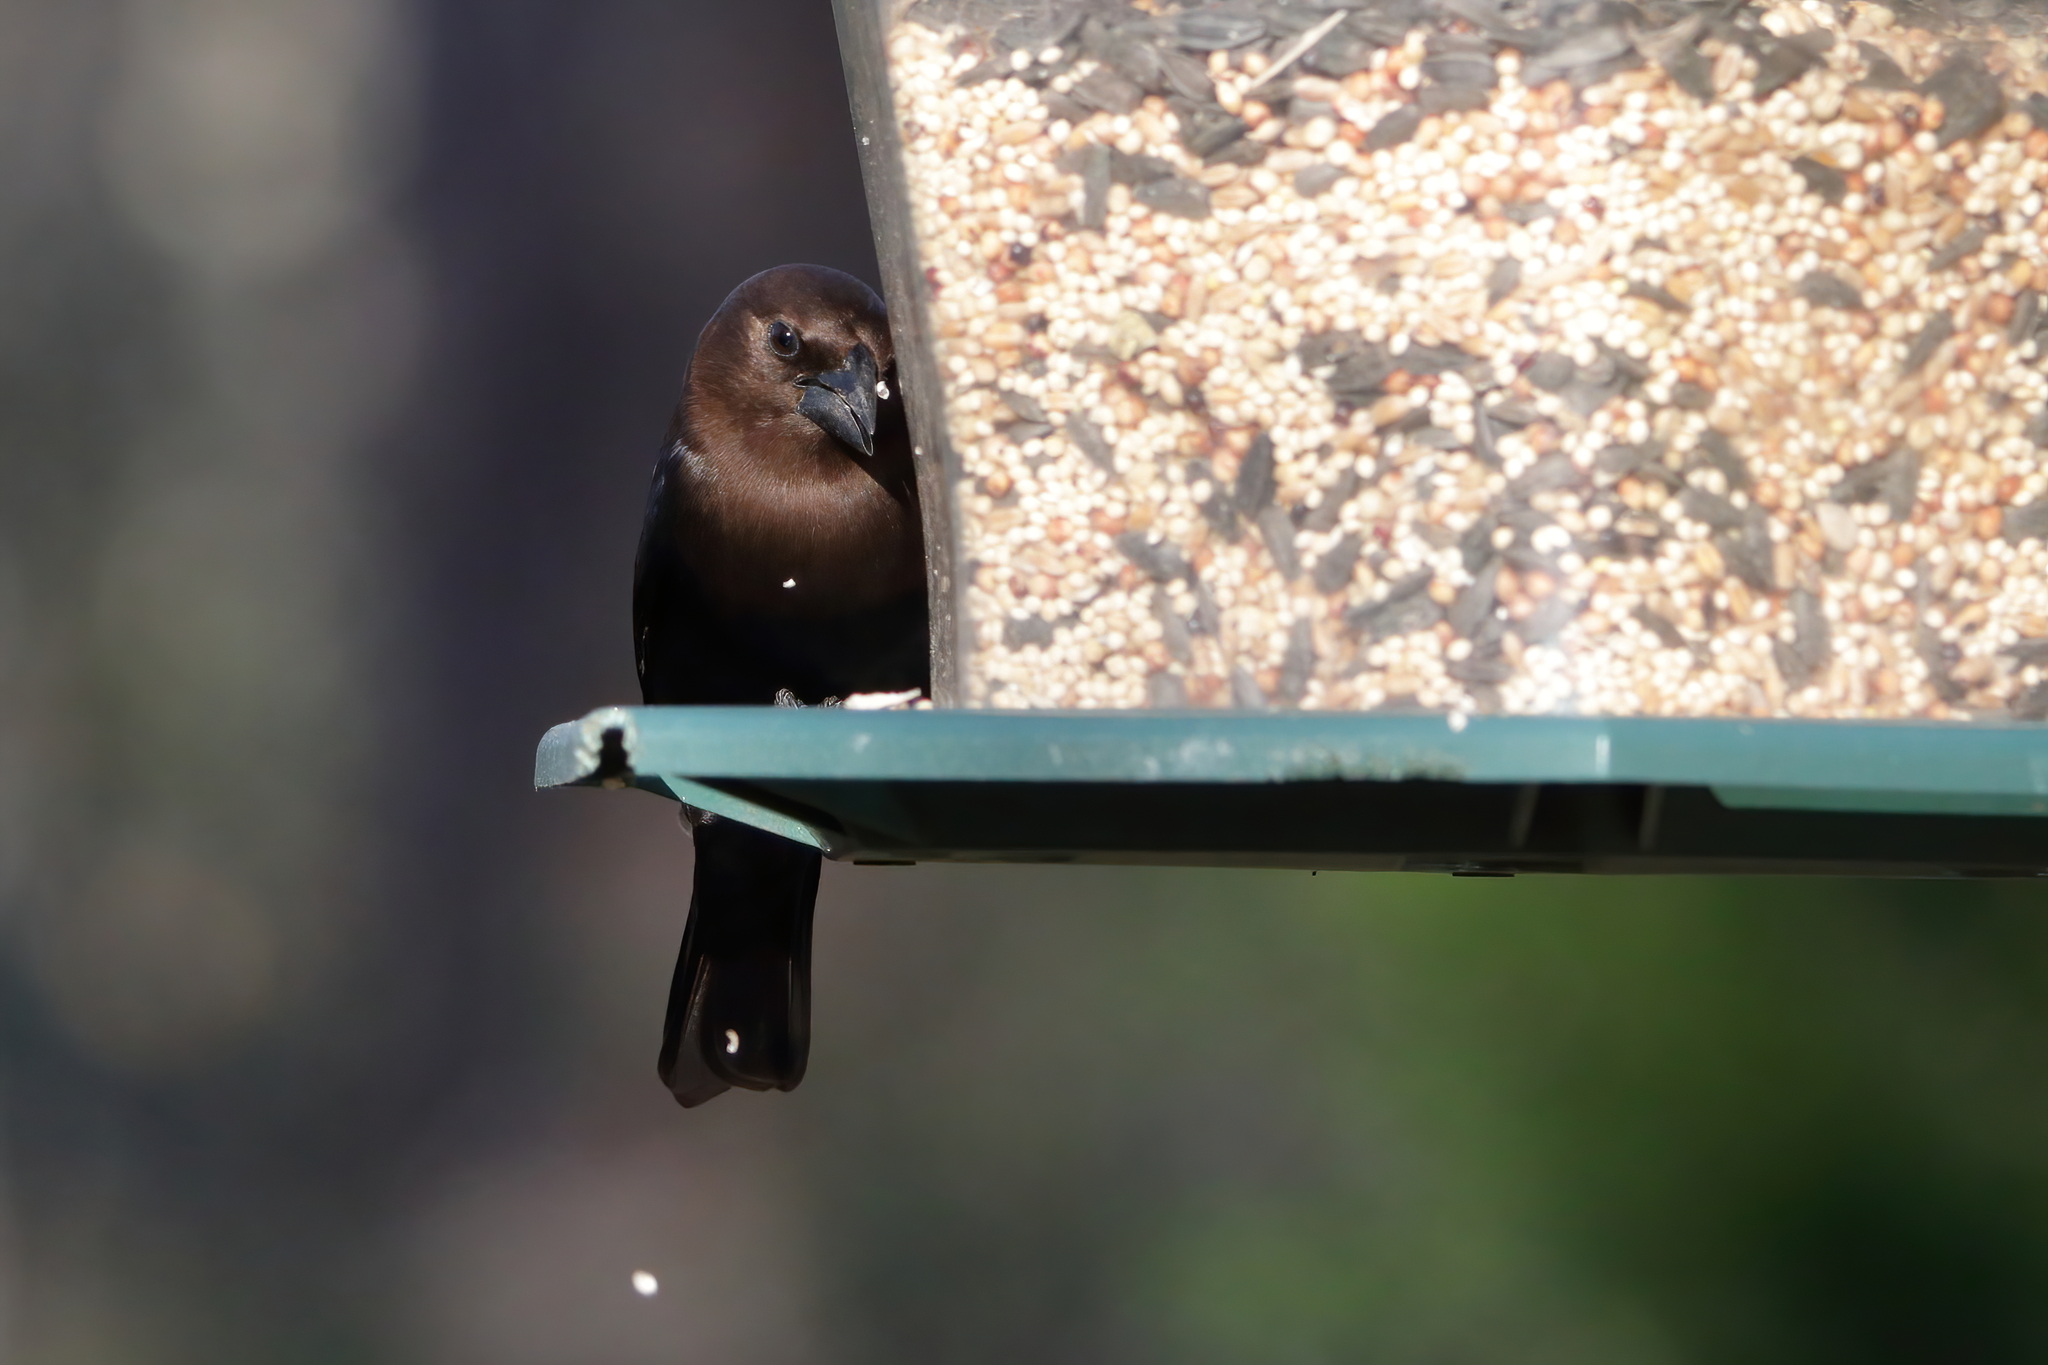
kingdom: Animalia
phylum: Chordata
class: Aves
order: Passeriformes
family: Icteridae
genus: Molothrus
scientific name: Molothrus ater
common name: Brown-headed cowbird
